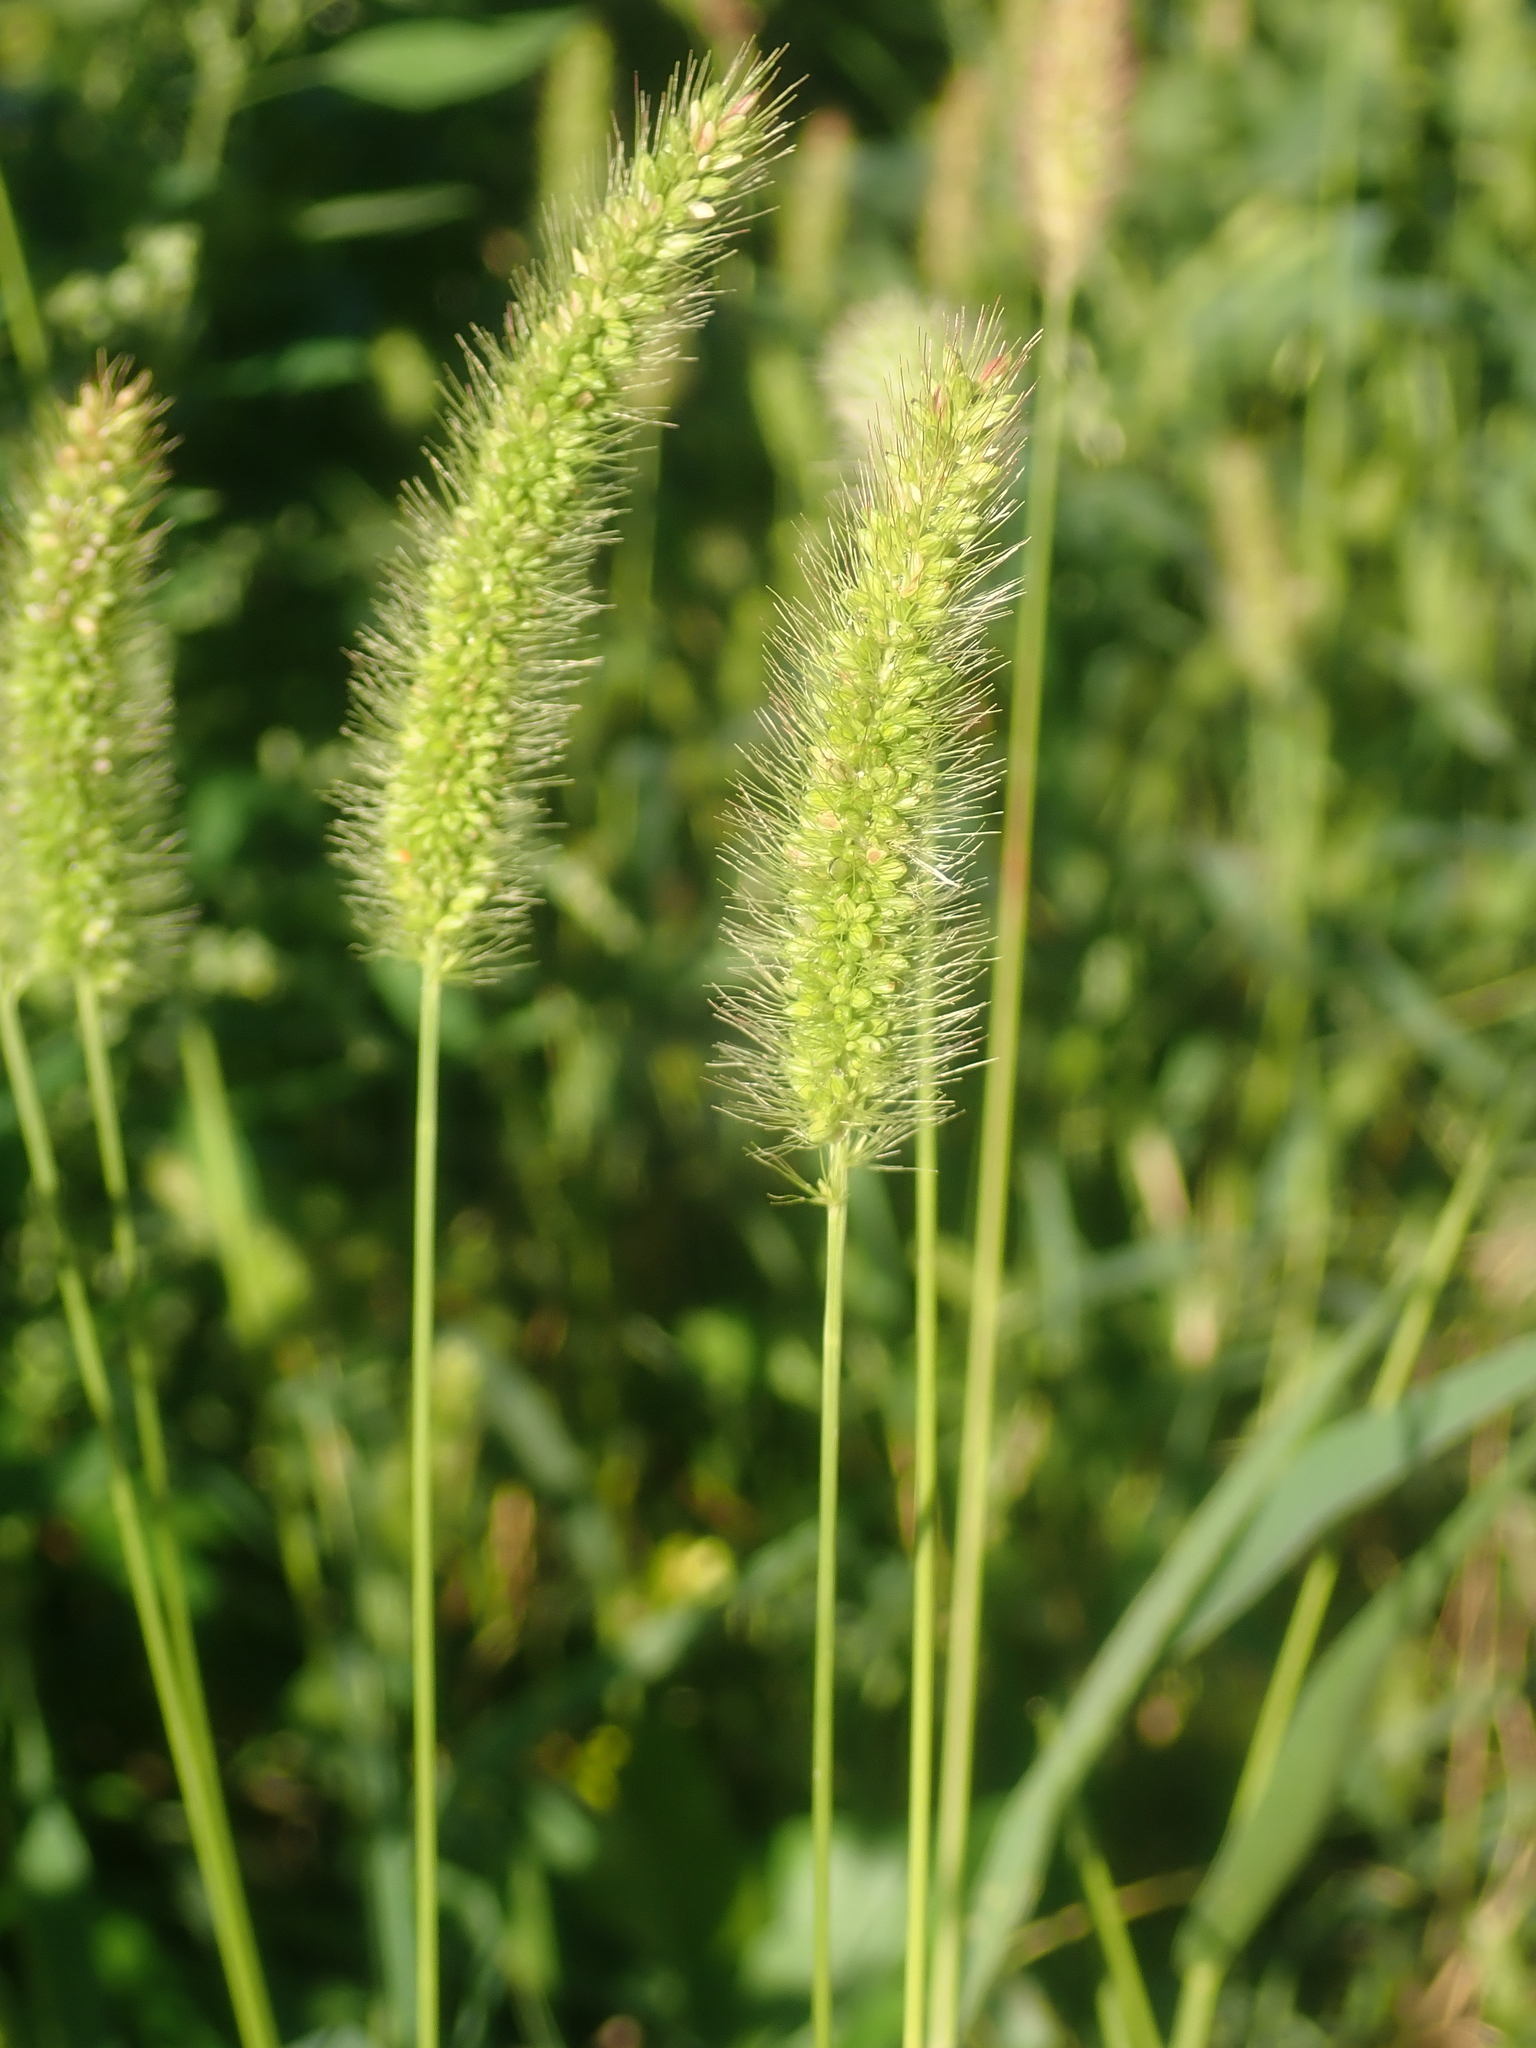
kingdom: Plantae
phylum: Tracheophyta
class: Liliopsida
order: Poales
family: Poaceae
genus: Setaria
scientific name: Setaria viridis
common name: Green bristlegrass
